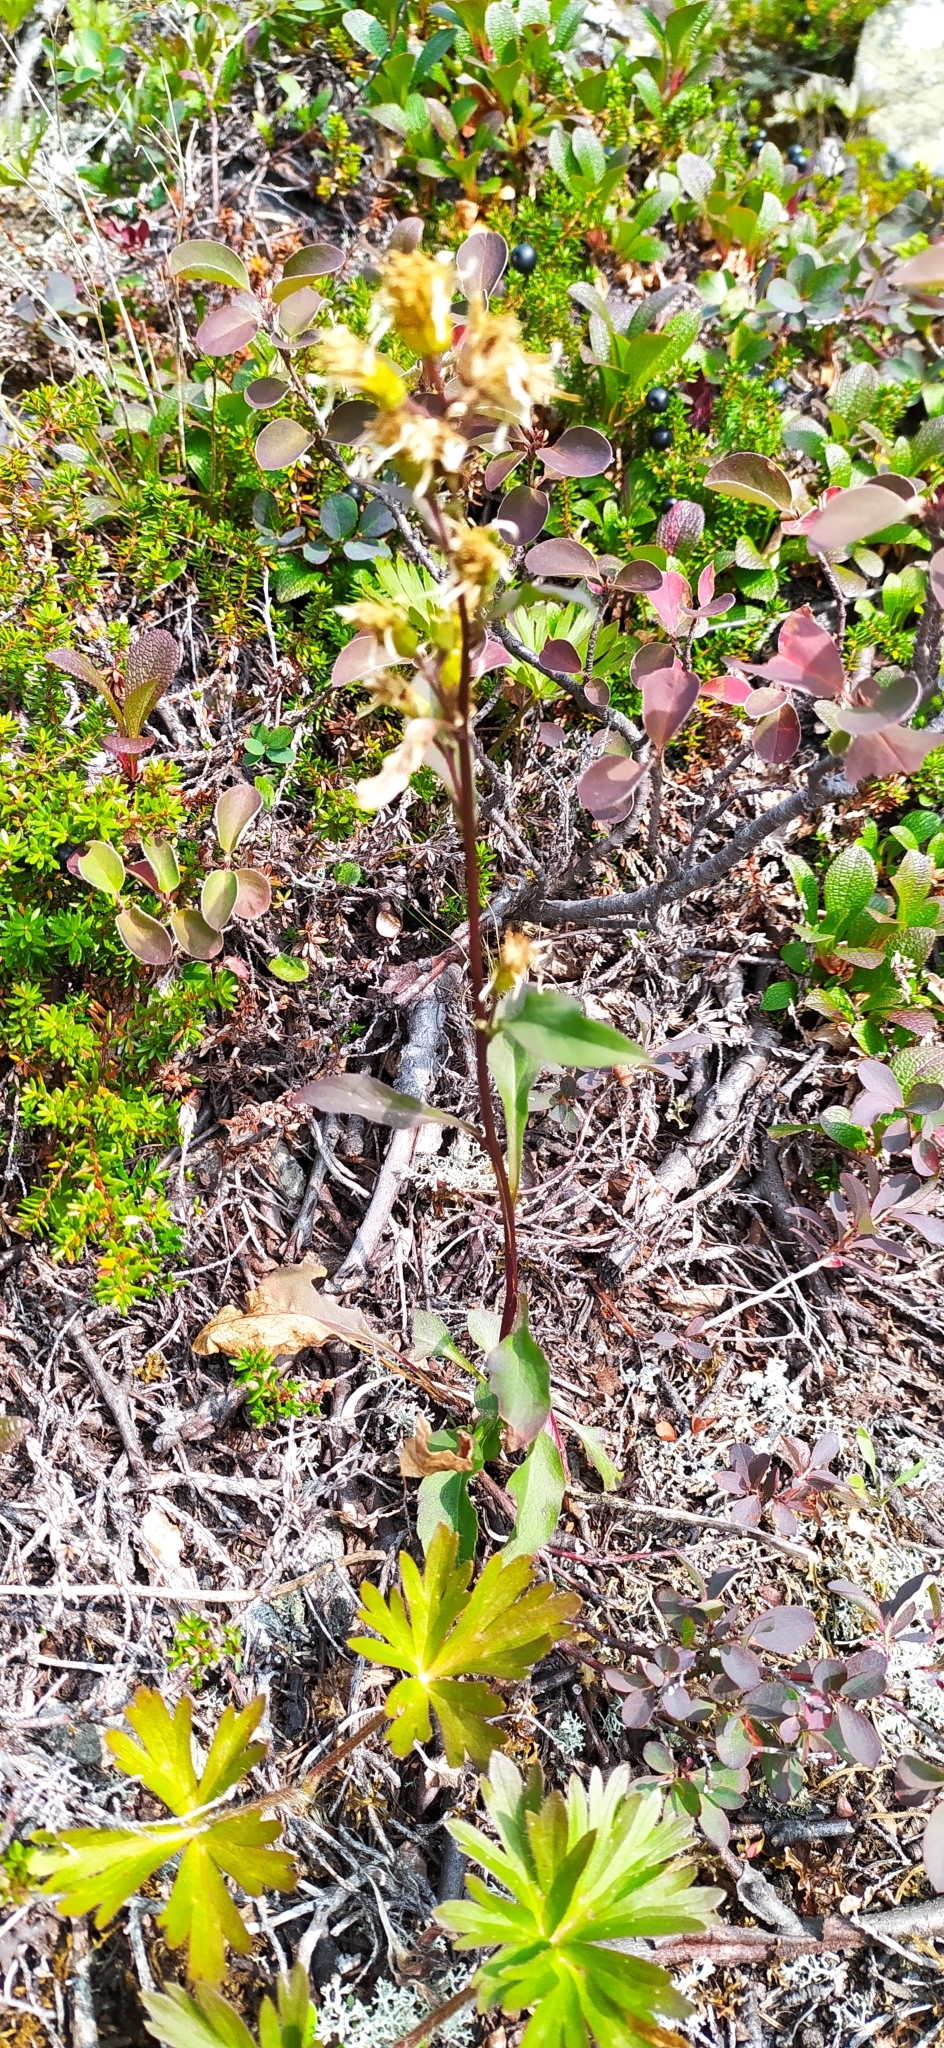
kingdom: Plantae
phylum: Tracheophyta
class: Magnoliopsida
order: Asterales
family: Asteraceae
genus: Solidago
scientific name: Solidago virgaurea
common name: Goldenrod
